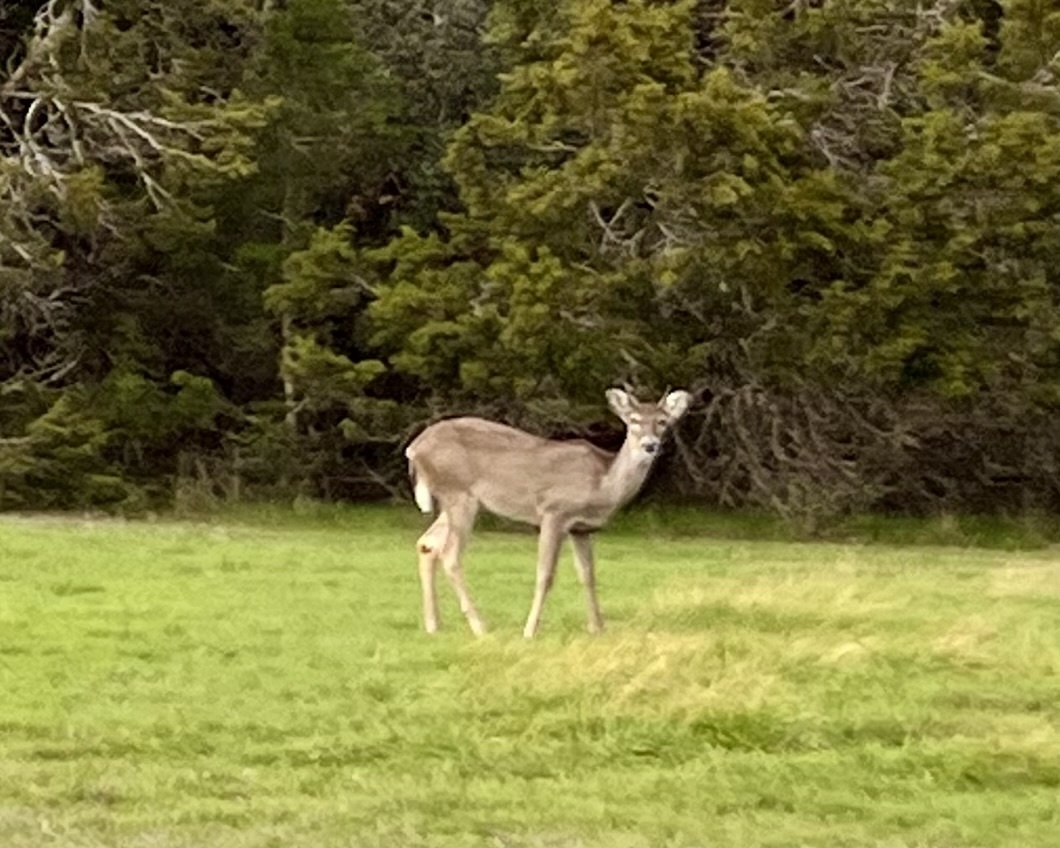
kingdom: Animalia
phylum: Chordata
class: Mammalia
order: Artiodactyla
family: Cervidae
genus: Odocoileus
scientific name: Odocoileus virginianus
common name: White-tailed deer
